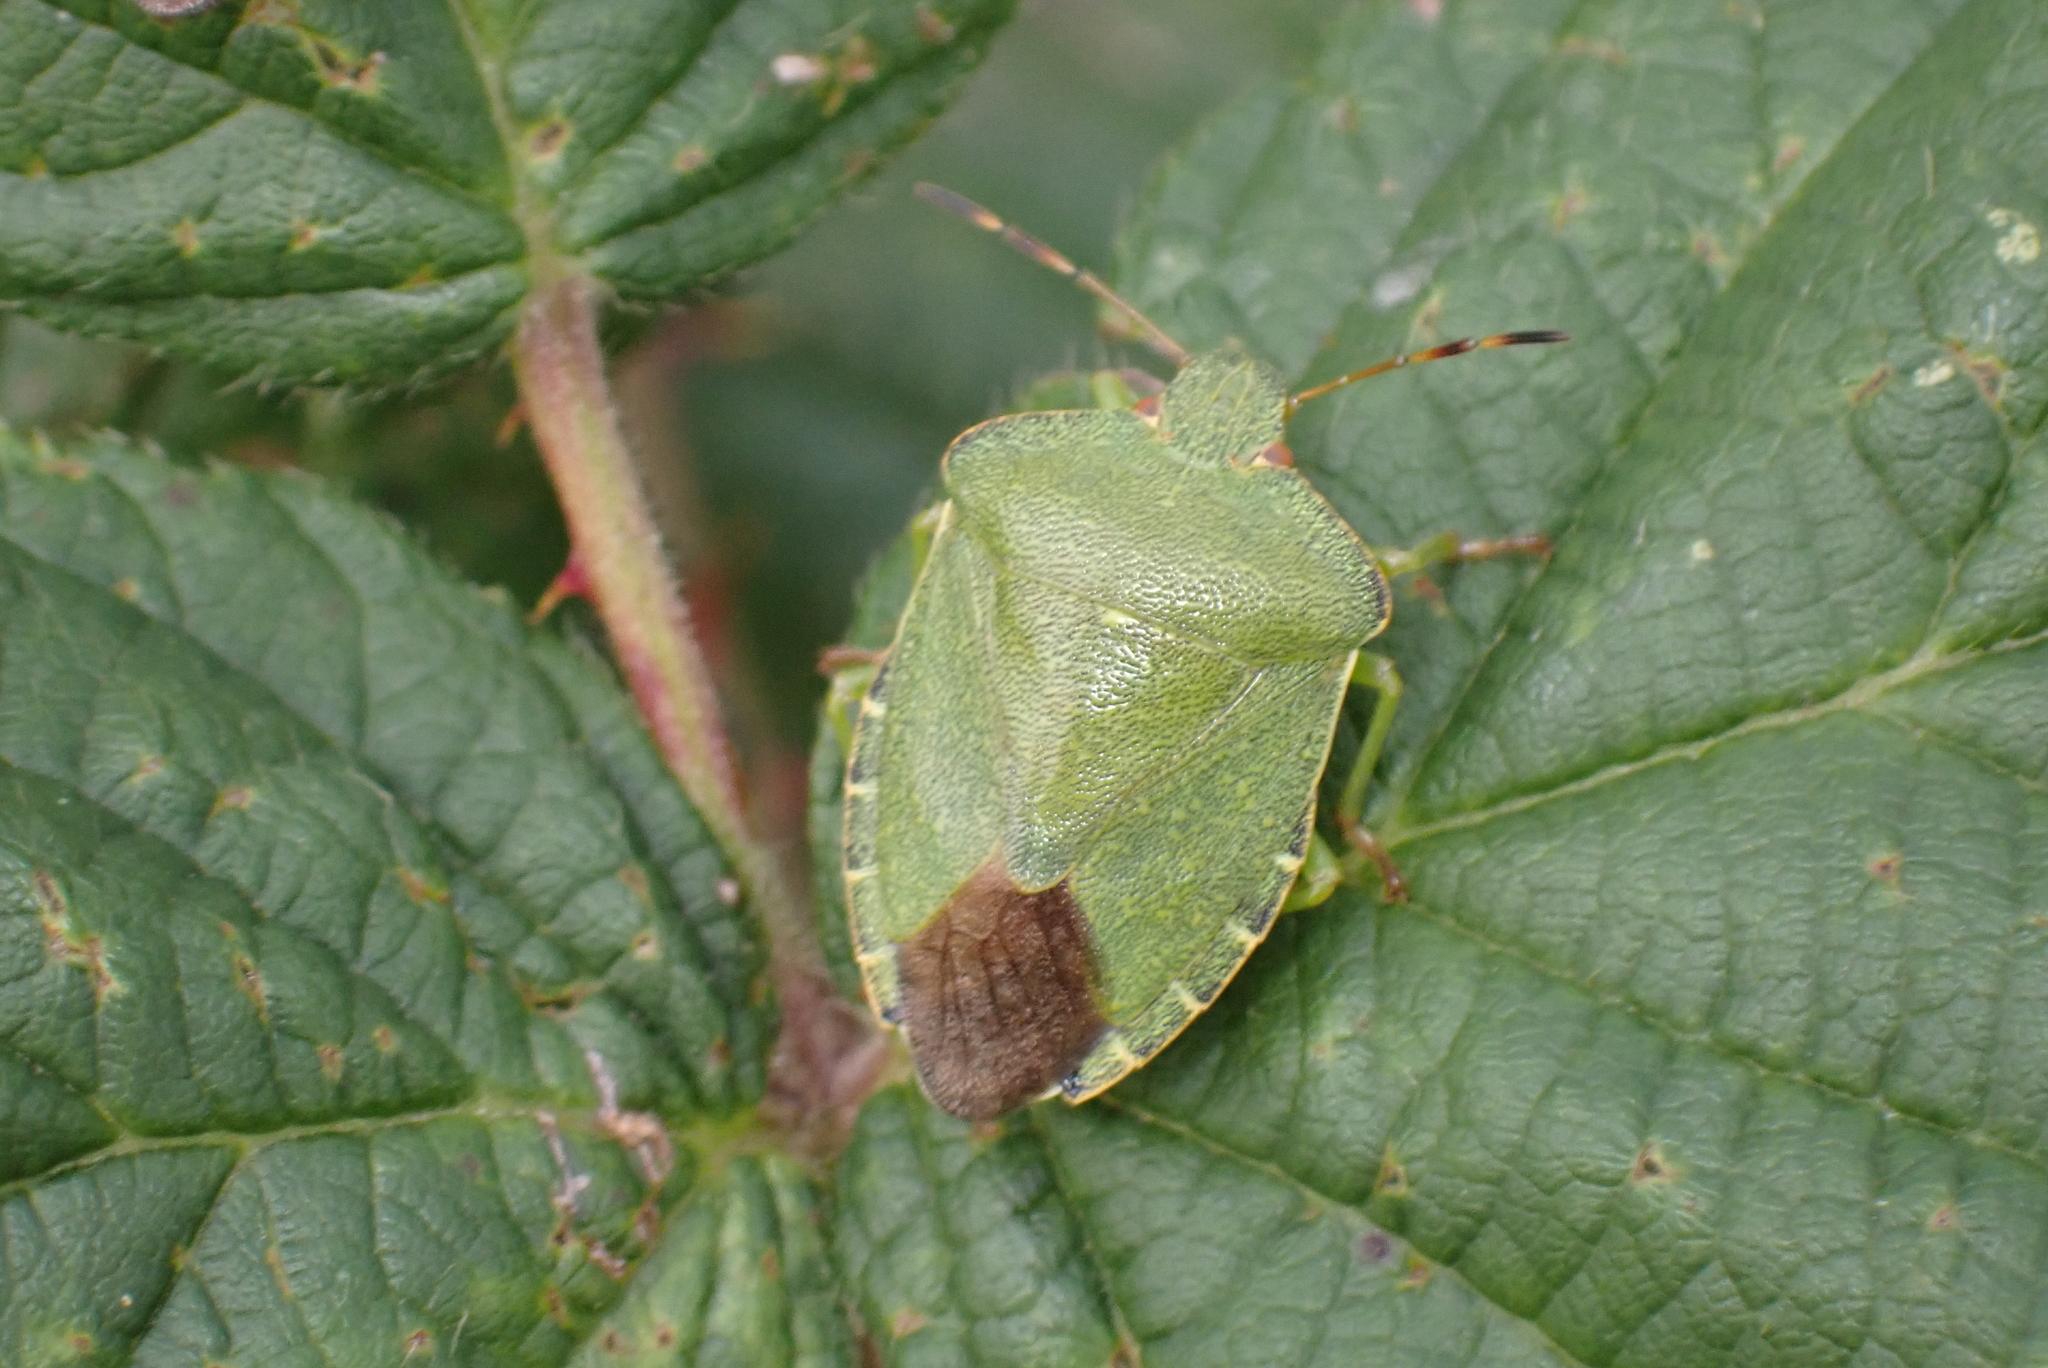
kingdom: Animalia
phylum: Arthropoda
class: Insecta
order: Hemiptera
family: Pentatomidae
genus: Palomena
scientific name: Palomena prasina
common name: Green shieldbug
